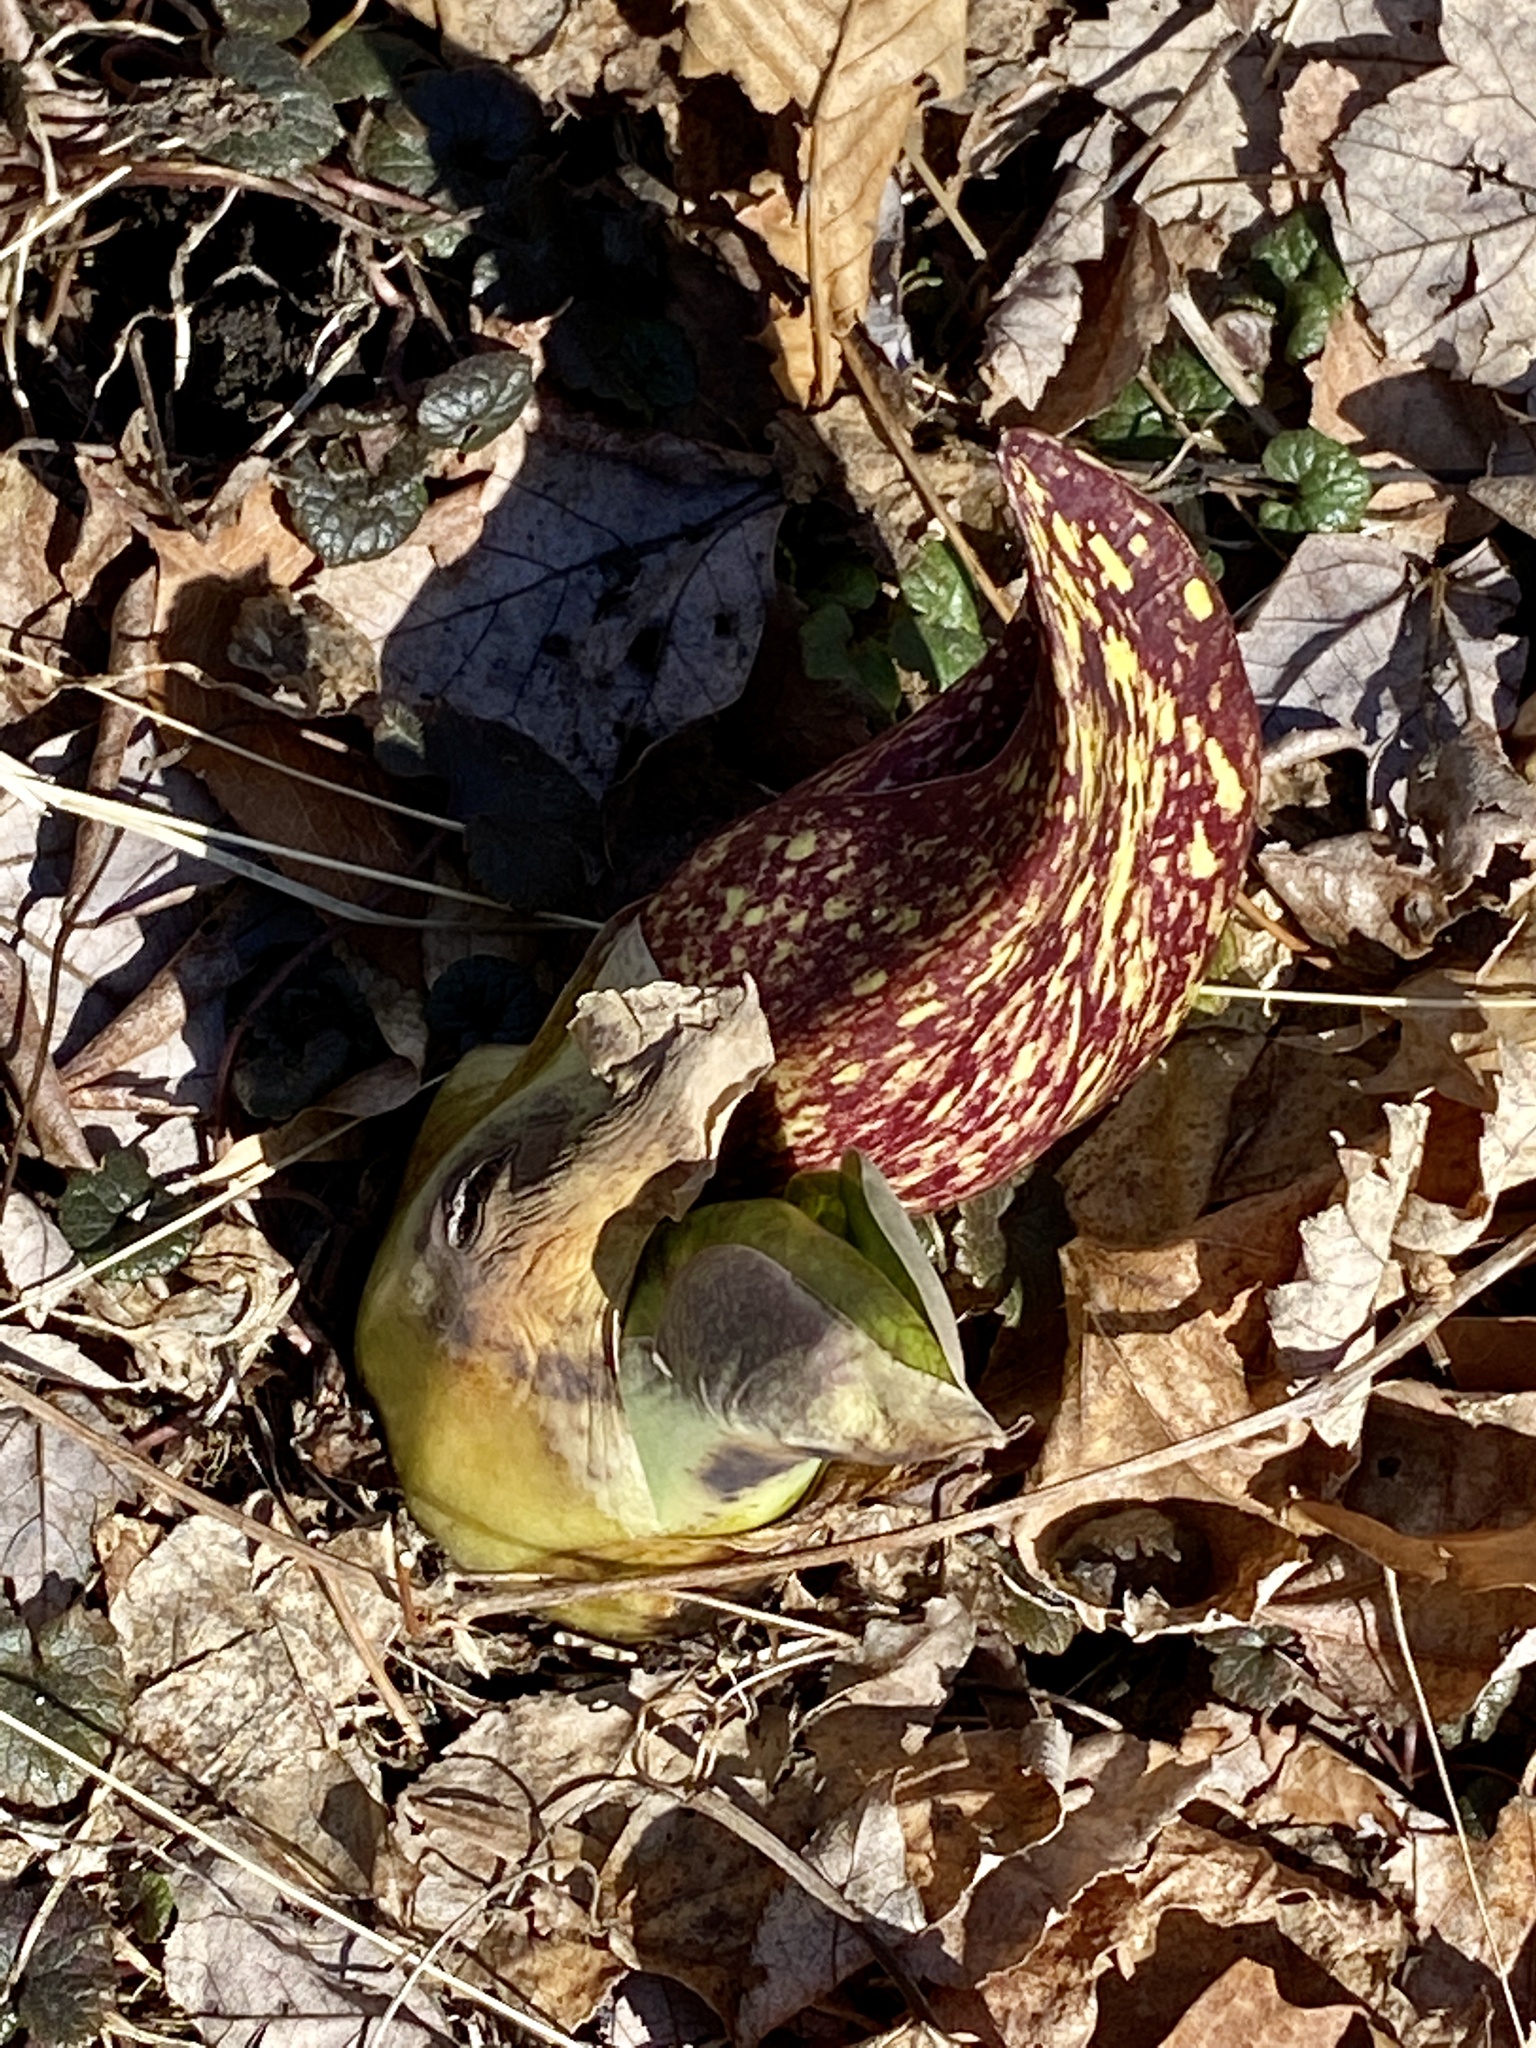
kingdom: Plantae
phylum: Tracheophyta
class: Liliopsida
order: Alismatales
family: Araceae
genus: Symplocarpus
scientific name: Symplocarpus foetidus
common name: Eastern skunk cabbage
